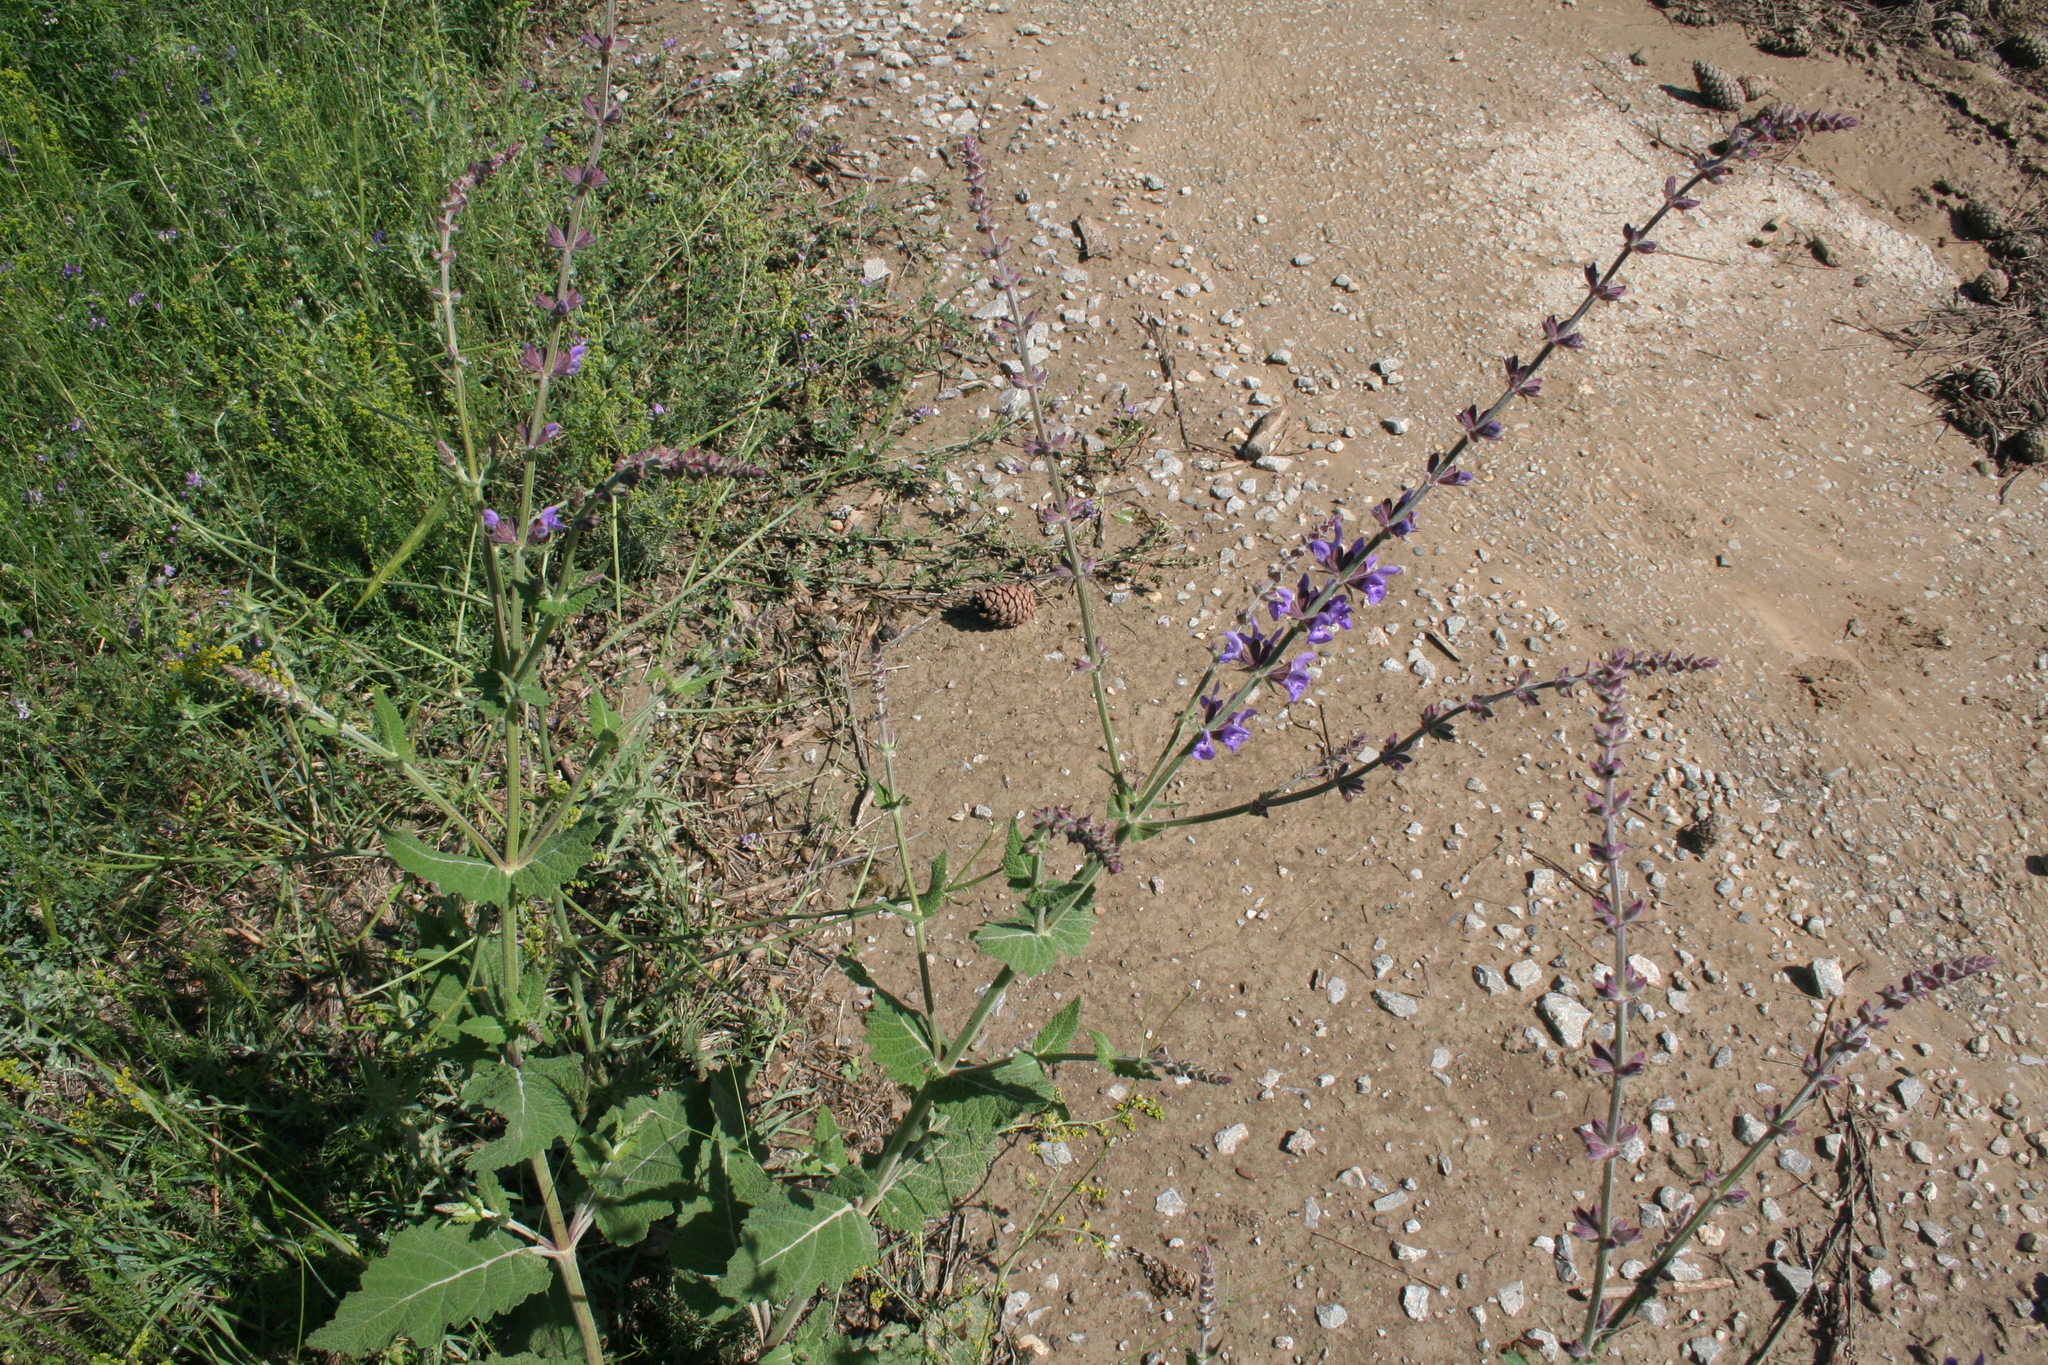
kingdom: Plantae
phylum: Tracheophyta
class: Magnoliopsida
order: Lamiales
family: Lamiaceae
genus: Salvia
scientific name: Salvia virgata
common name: Wand sage
